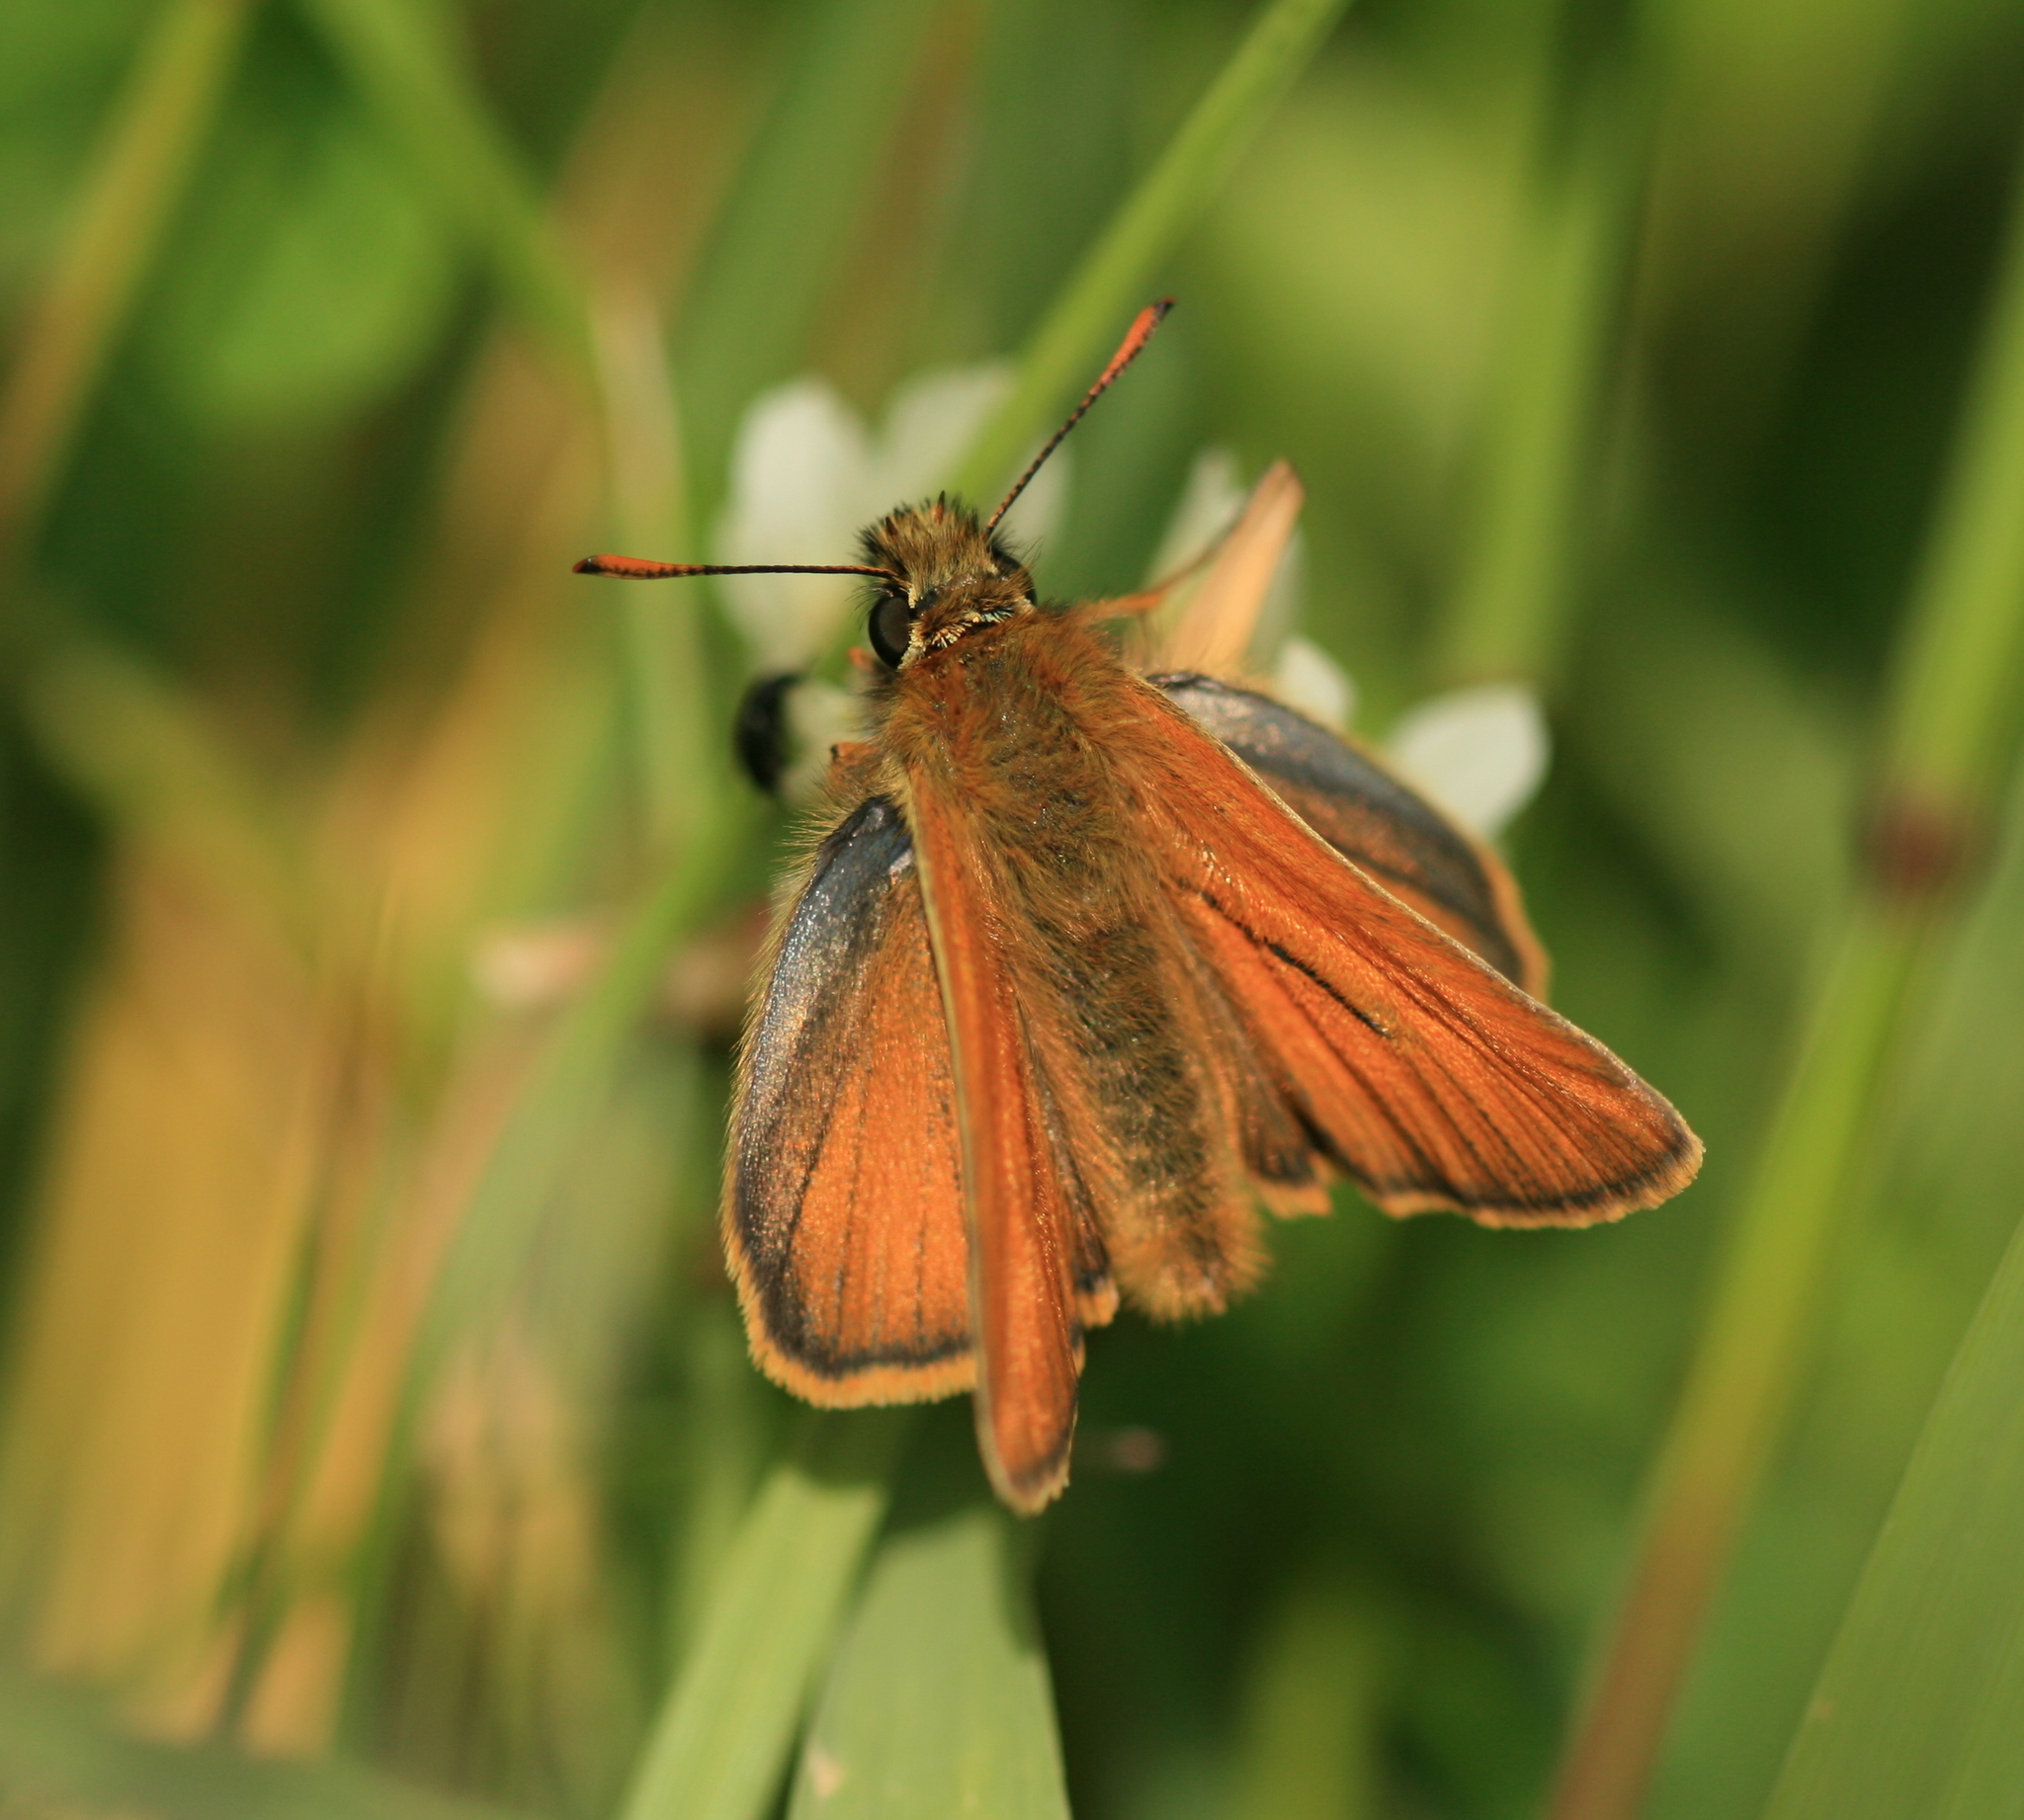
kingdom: Animalia
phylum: Arthropoda
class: Insecta
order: Lepidoptera
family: Hesperiidae
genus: Thymelicus
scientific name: Thymelicus sylvestris
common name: Small skipper
